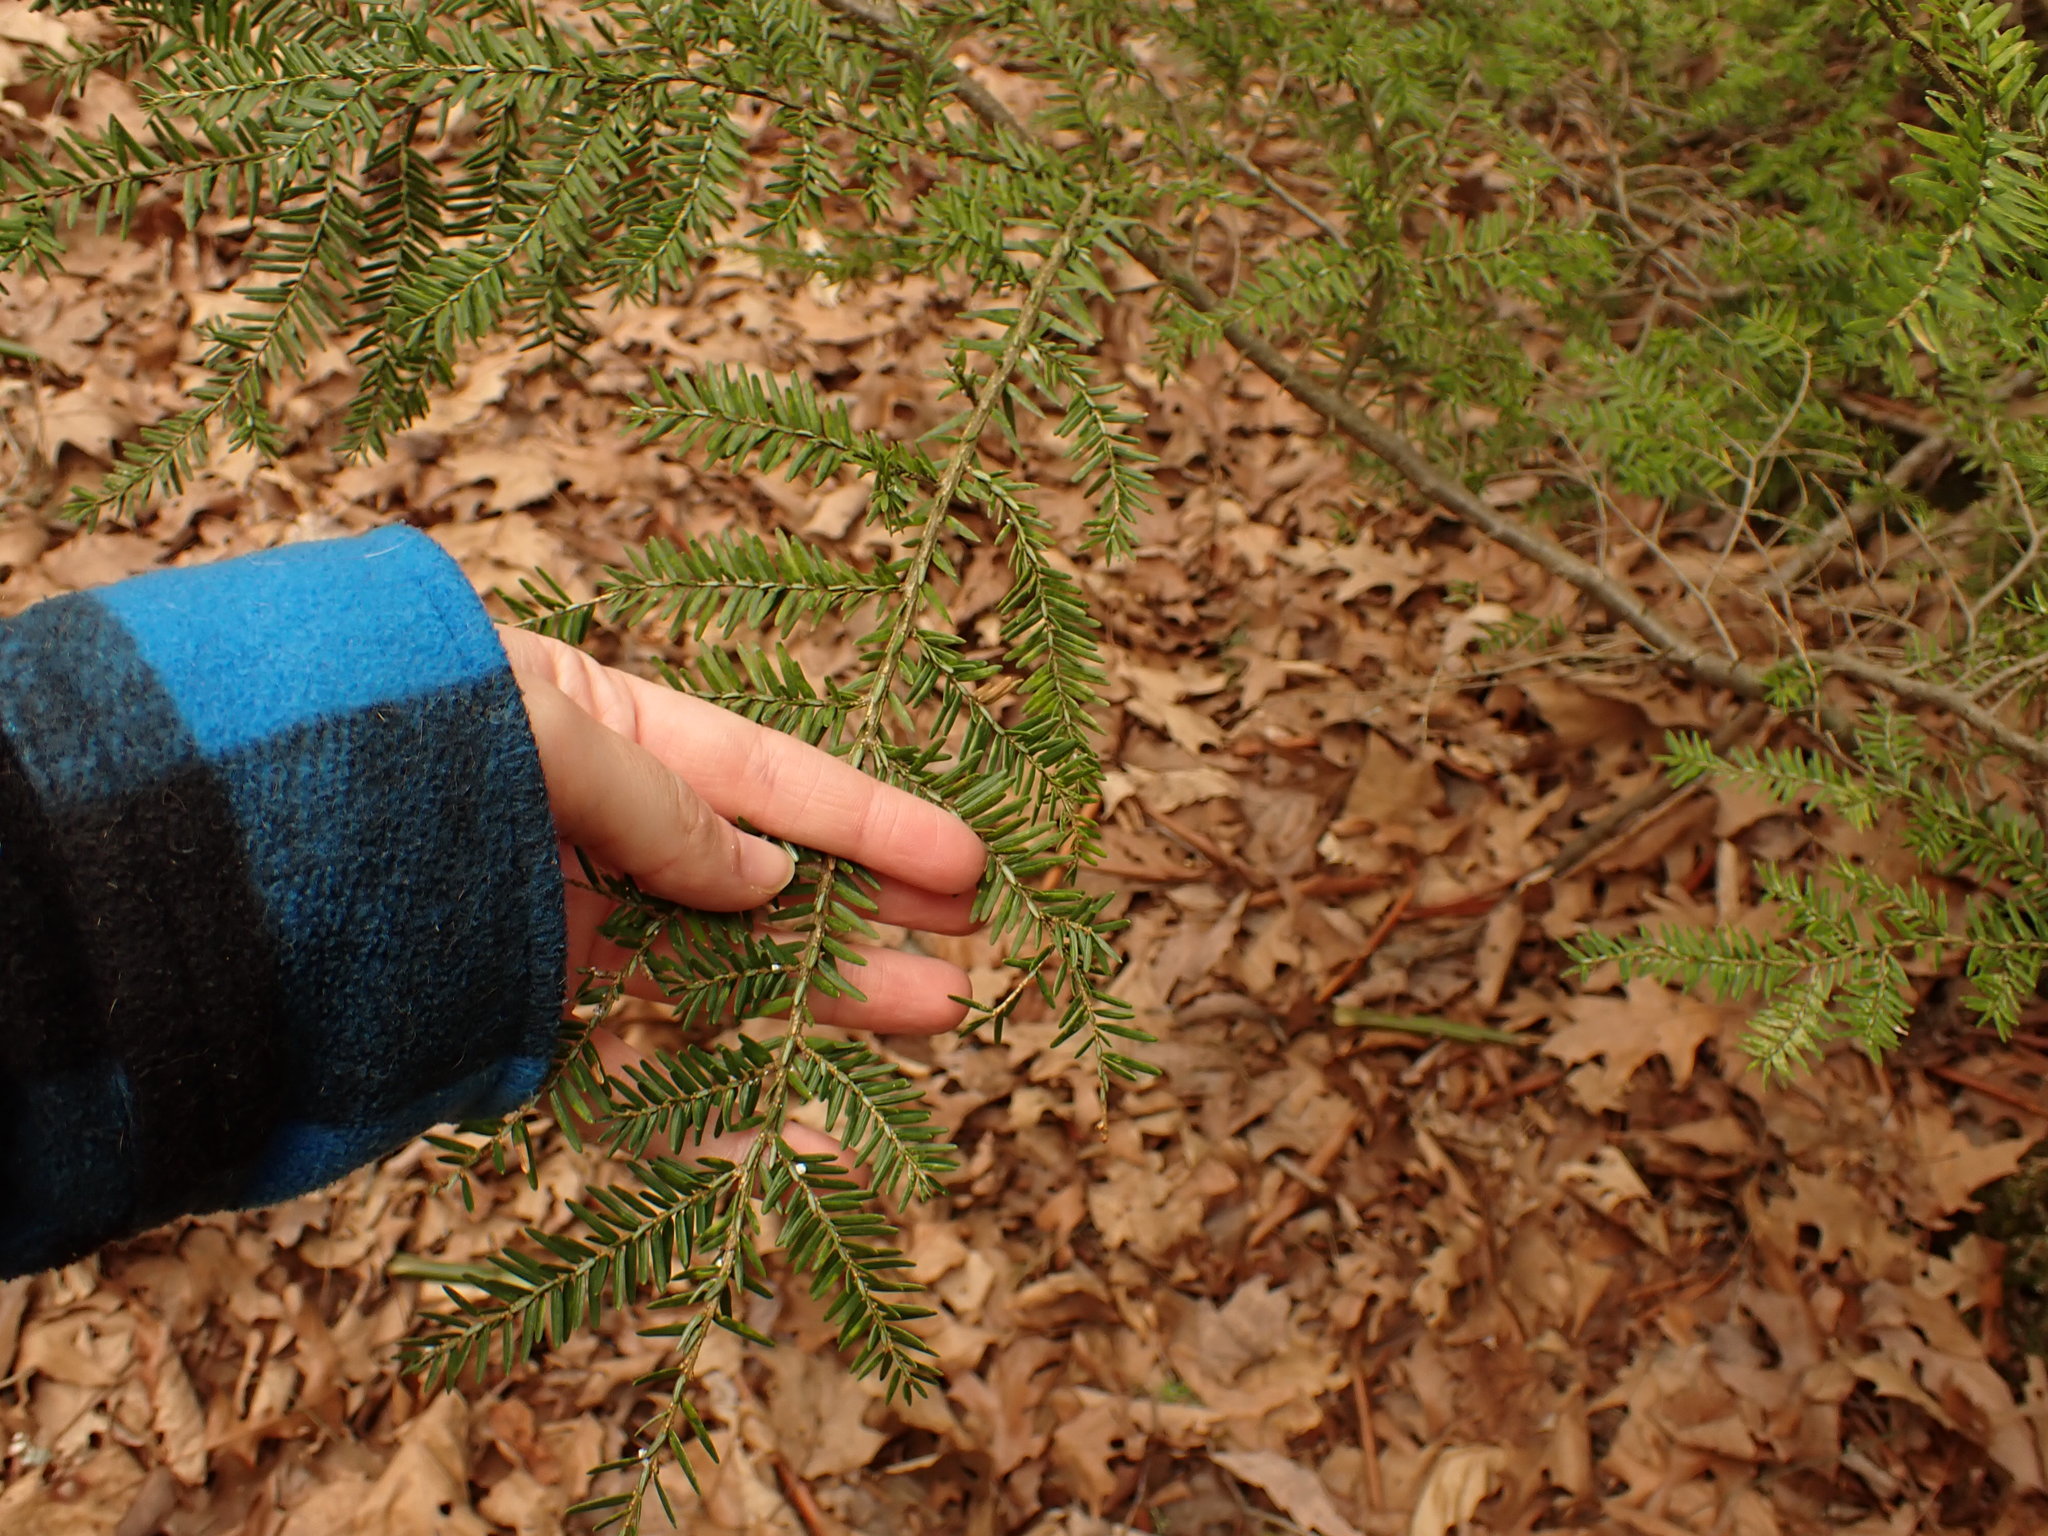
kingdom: Plantae
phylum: Tracheophyta
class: Pinopsida
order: Pinales
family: Pinaceae
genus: Tsuga
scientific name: Tsuga canadensis
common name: Eastern hemlock
